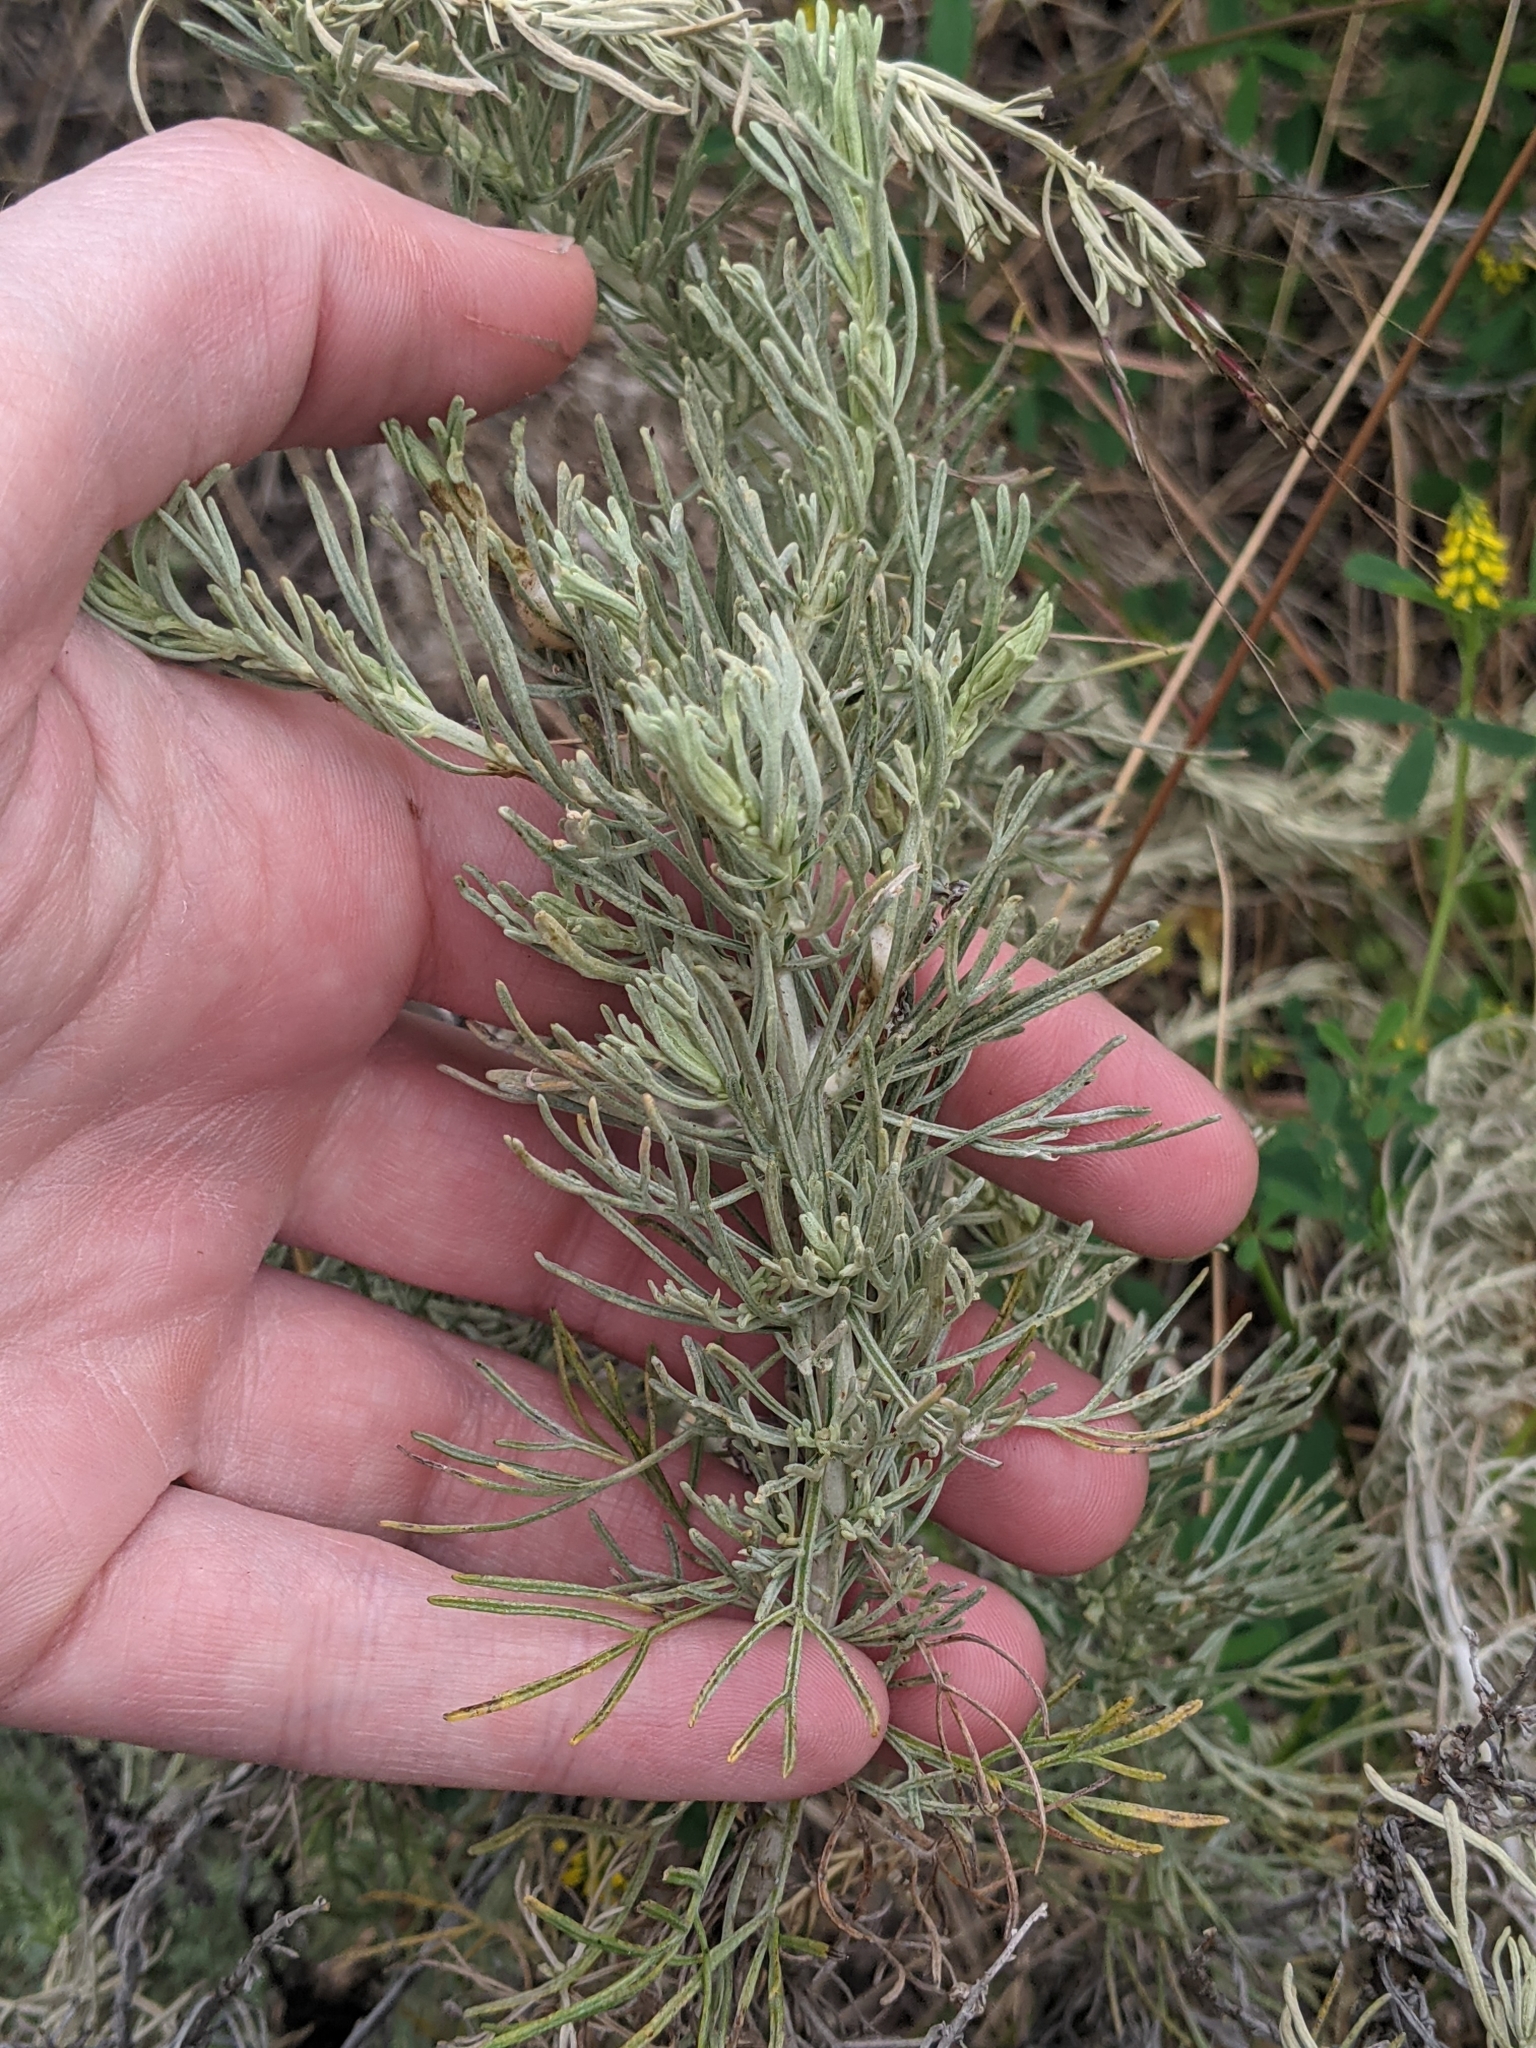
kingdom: Plantae
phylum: Tracheophyta
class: Magnoliopsida
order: Asterales
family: Asteraceae
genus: Artemisia
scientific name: Artemisia californica
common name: California sagebrush
